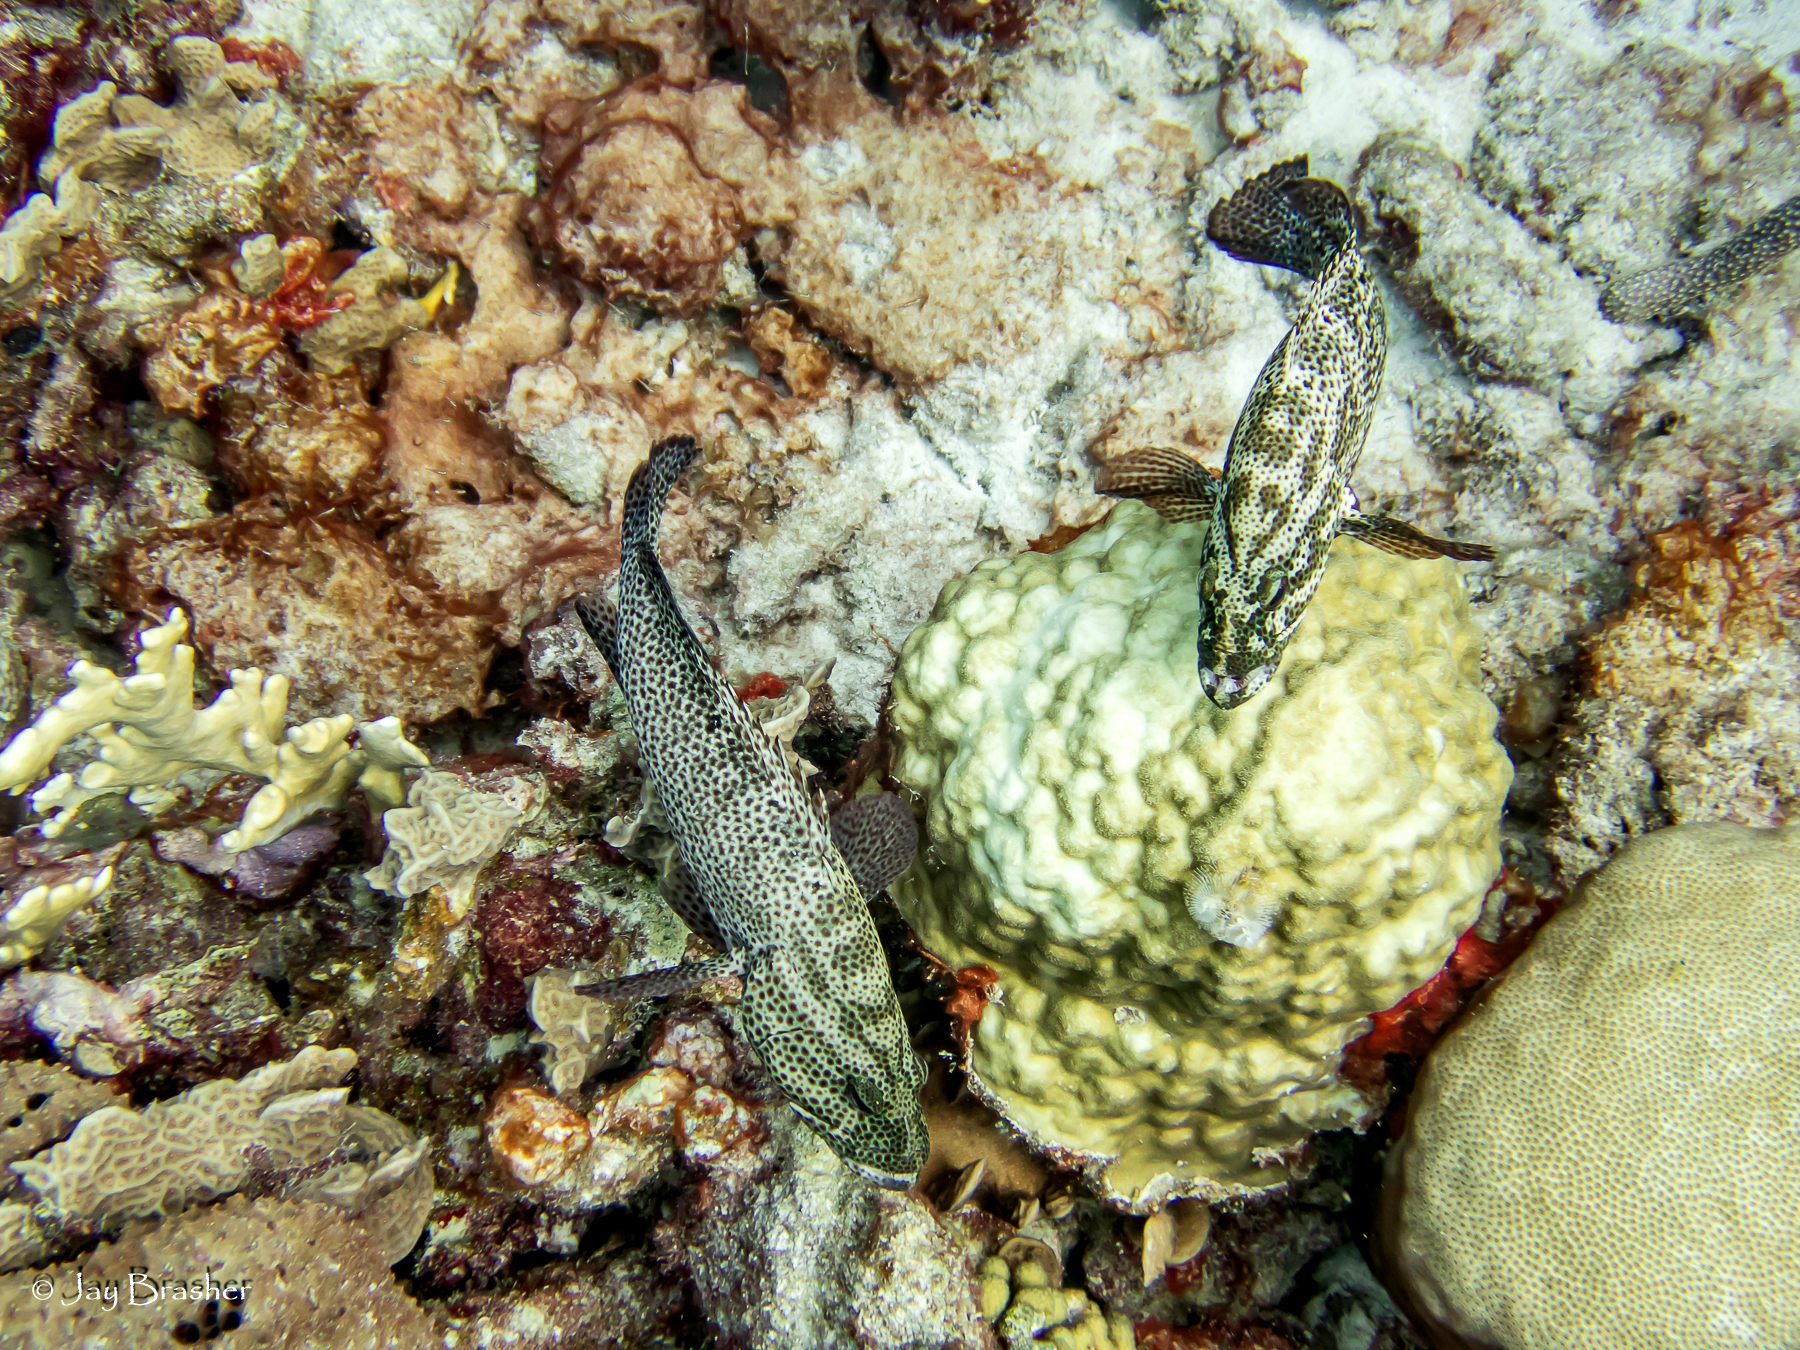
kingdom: Animalia
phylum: Chordata
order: Perciformes
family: Serranidae
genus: Cephalopholis
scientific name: Cephalopholis cruentata
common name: Graysby
